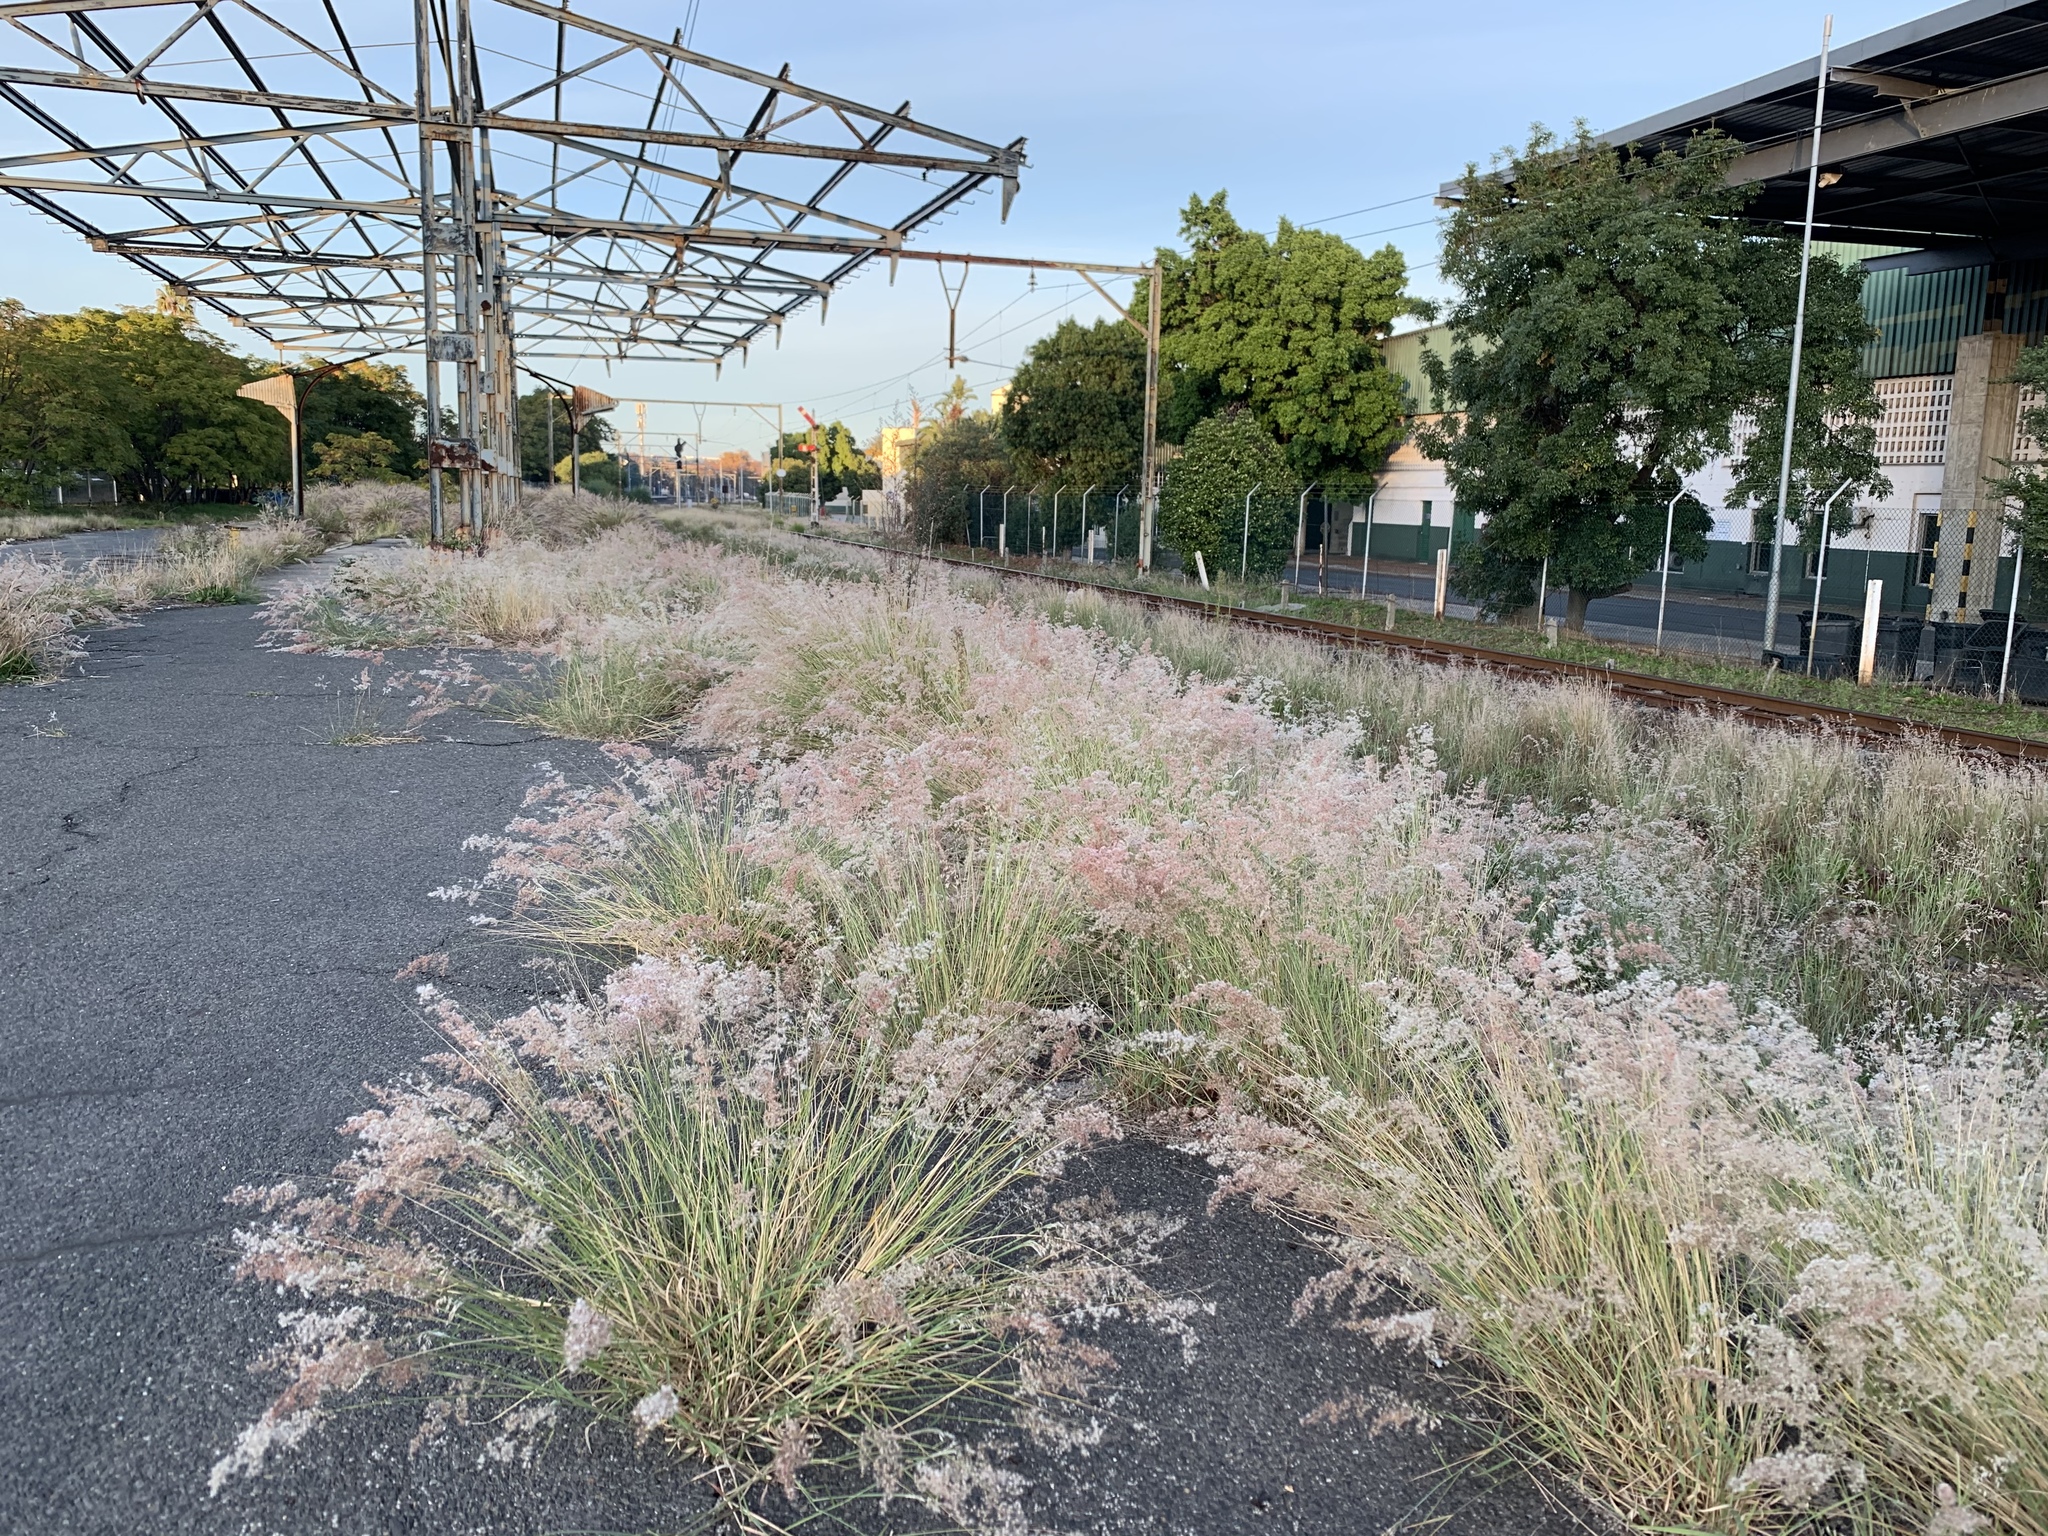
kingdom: Plantae
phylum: Tracheophyta
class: Liliopsida
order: Poales
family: Poaceae
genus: Melinis
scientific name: Melinis repens
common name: Rose natal grass
